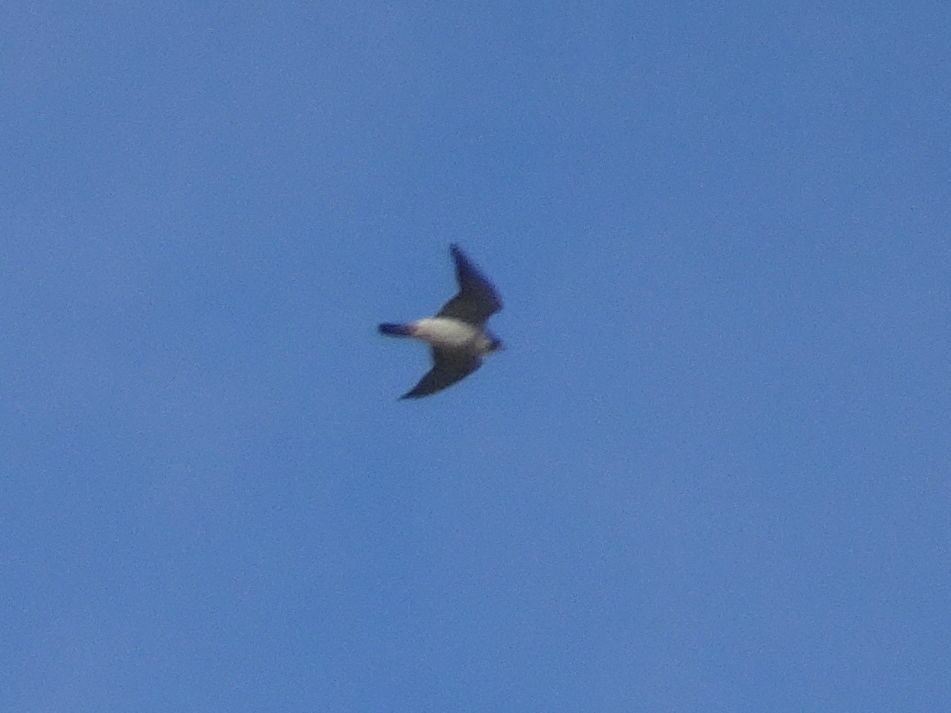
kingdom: Animalia
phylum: Chordata
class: Aves
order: Falconiformes
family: Falconidae
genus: Falco
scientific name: Falco peregrinus
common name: Peregrine falcon
